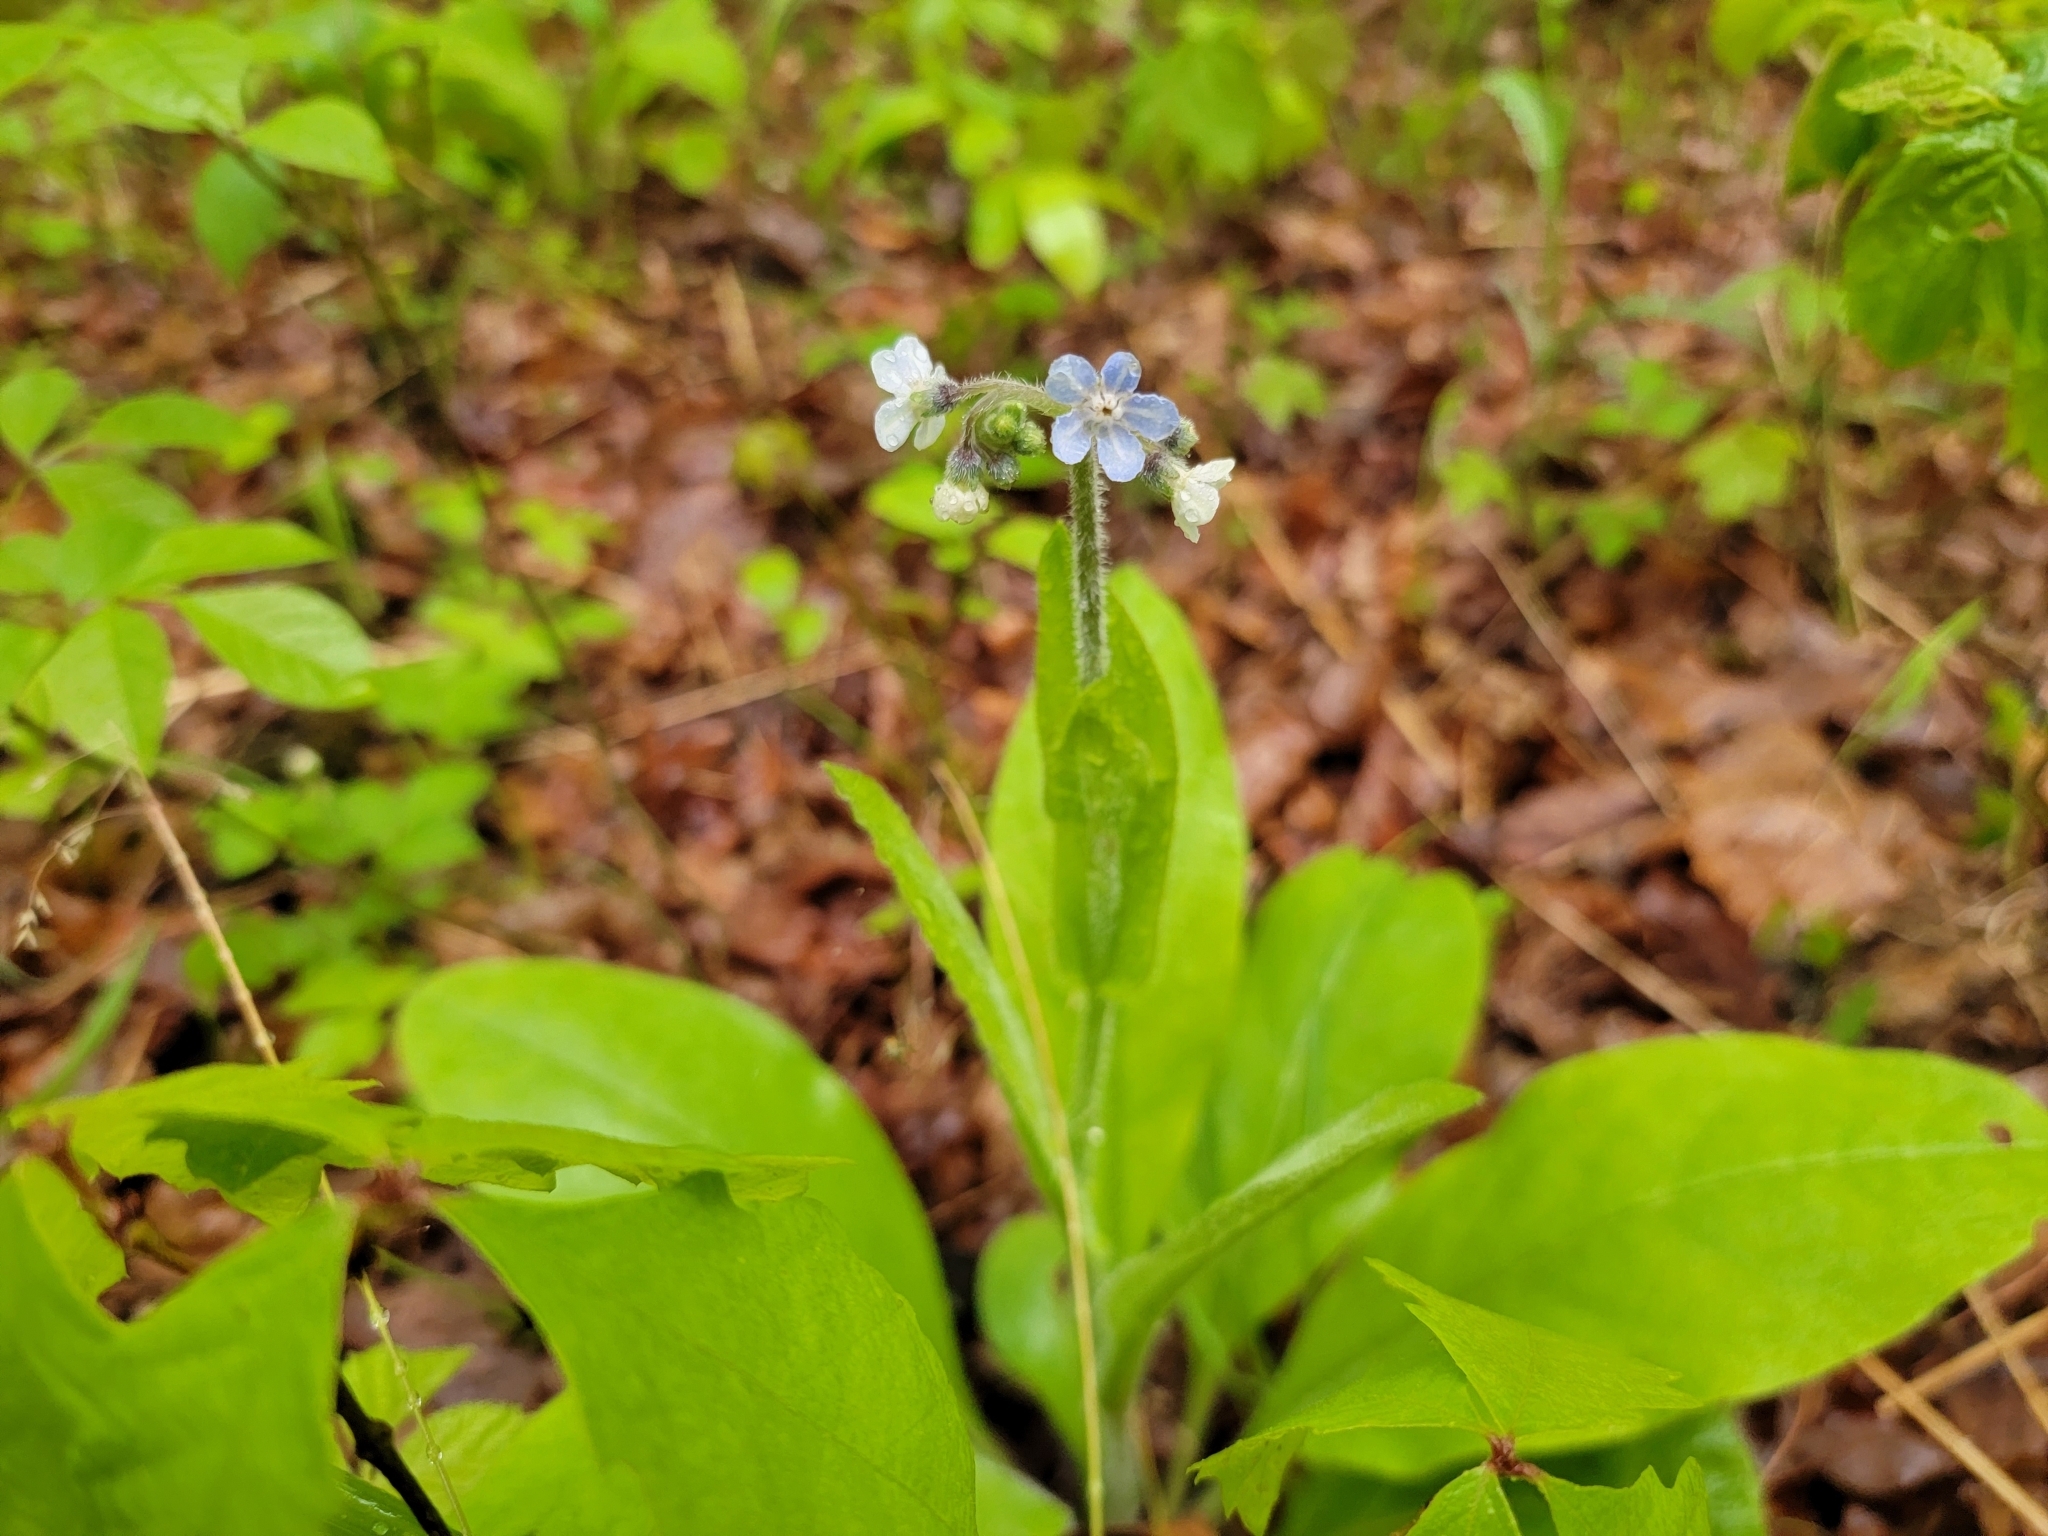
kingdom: Plantae
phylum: Tracheophyta
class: Magnoliopsida
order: Boraginales
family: Boraginaceae
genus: Andersonglossum
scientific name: Andersonglossum virginianum
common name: Wild comfrey
